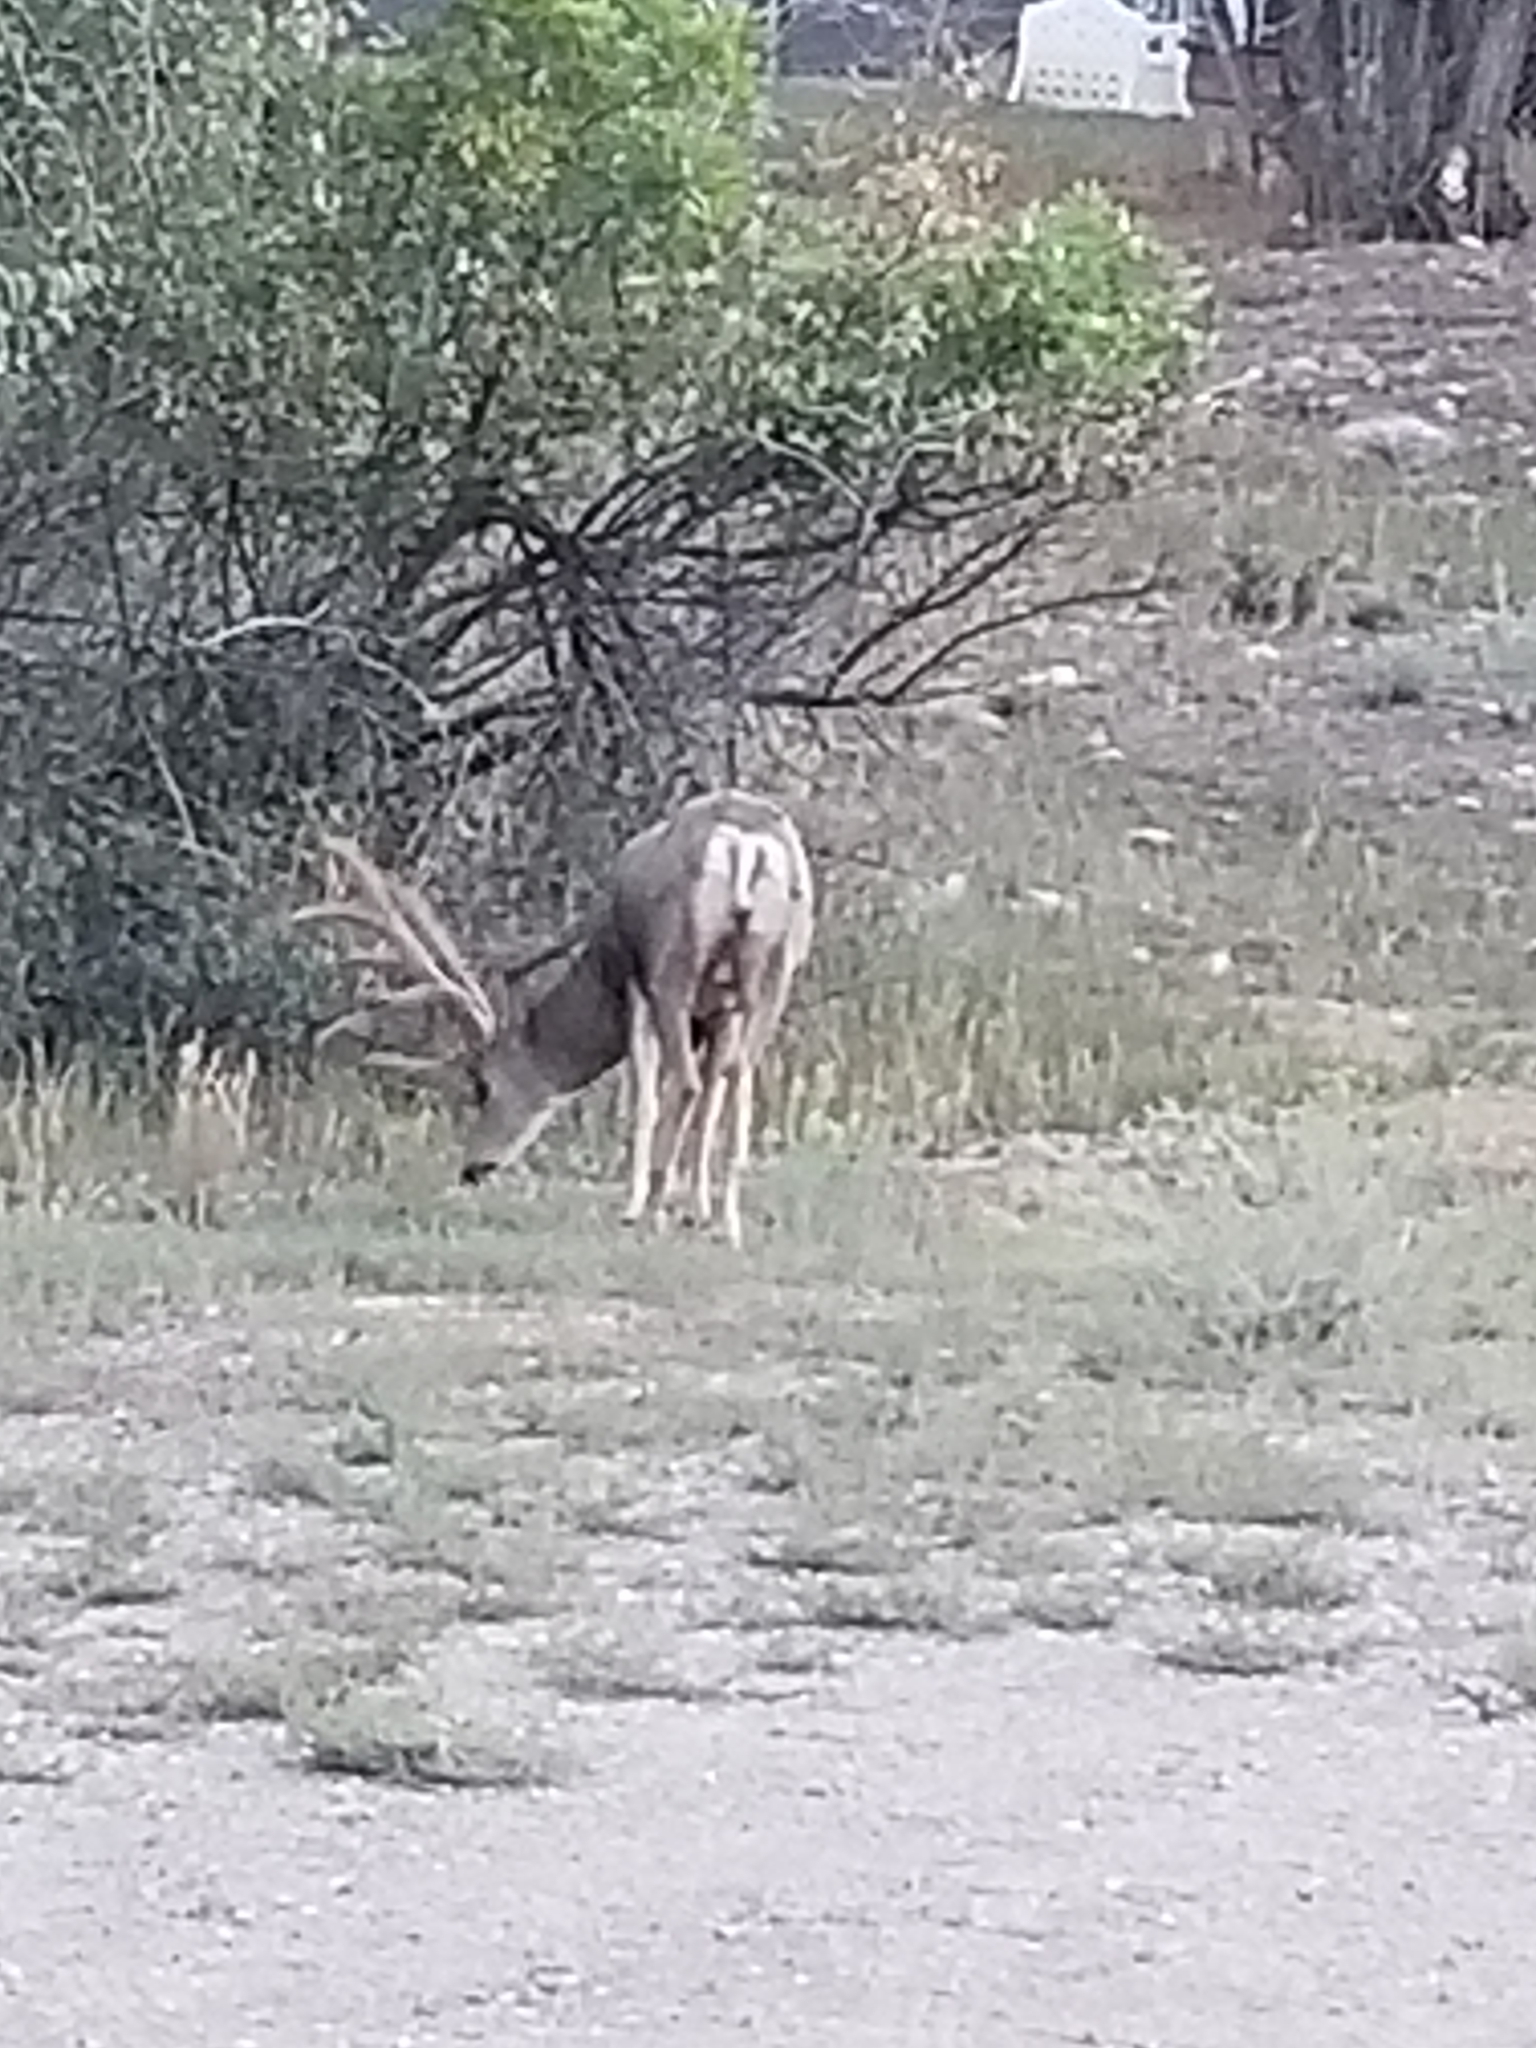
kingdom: Animalia
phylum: Chordata
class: Mammalia
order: Artiodactyla
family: Cervidae
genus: Odocoileus
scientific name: Odocoileus hemionus
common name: Mule deer
